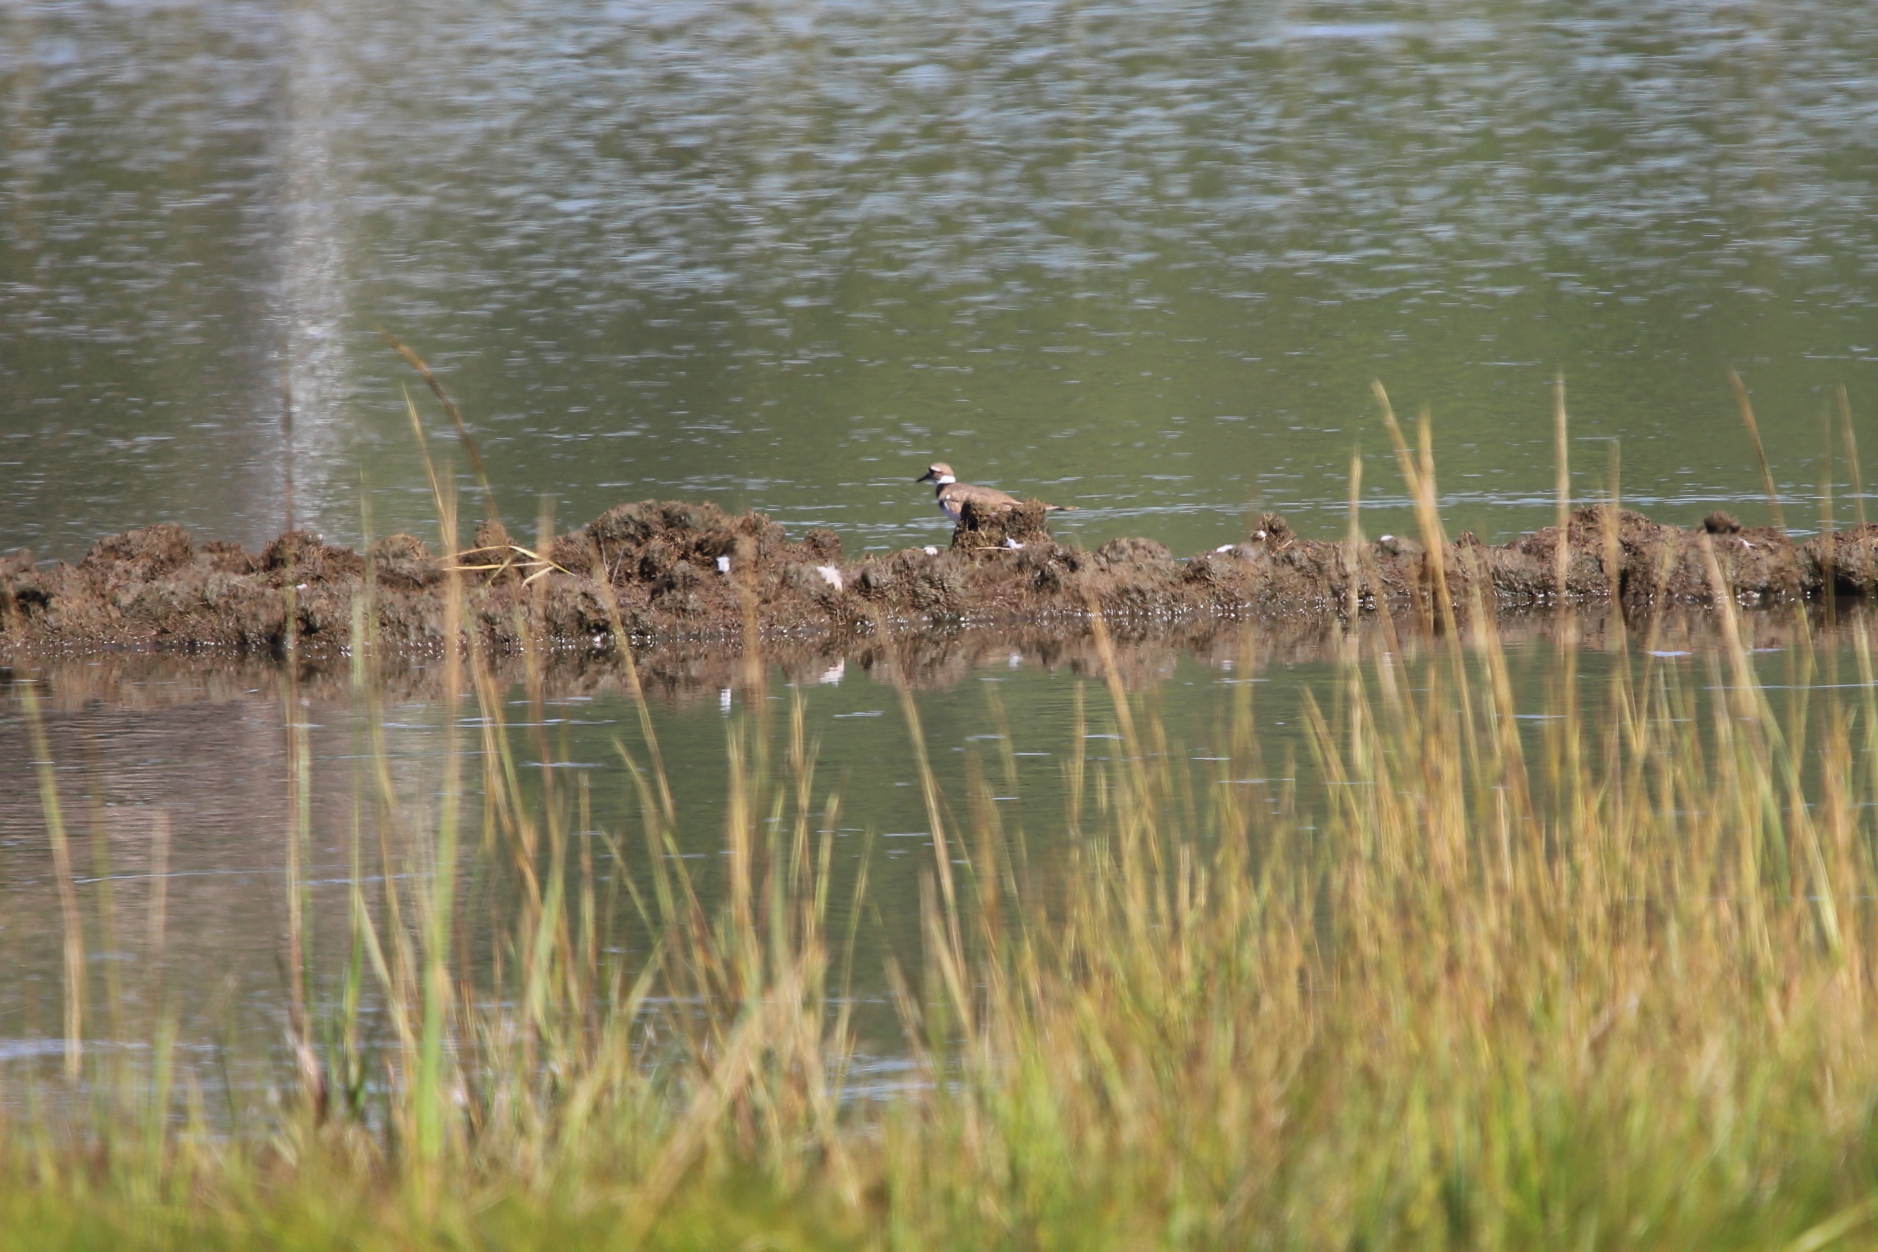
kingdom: Animalia
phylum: Chordata
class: Aves
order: Charadriiformes
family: Charadriidae
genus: Charadrius
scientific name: Charadrius vociferus
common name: Killdeer
